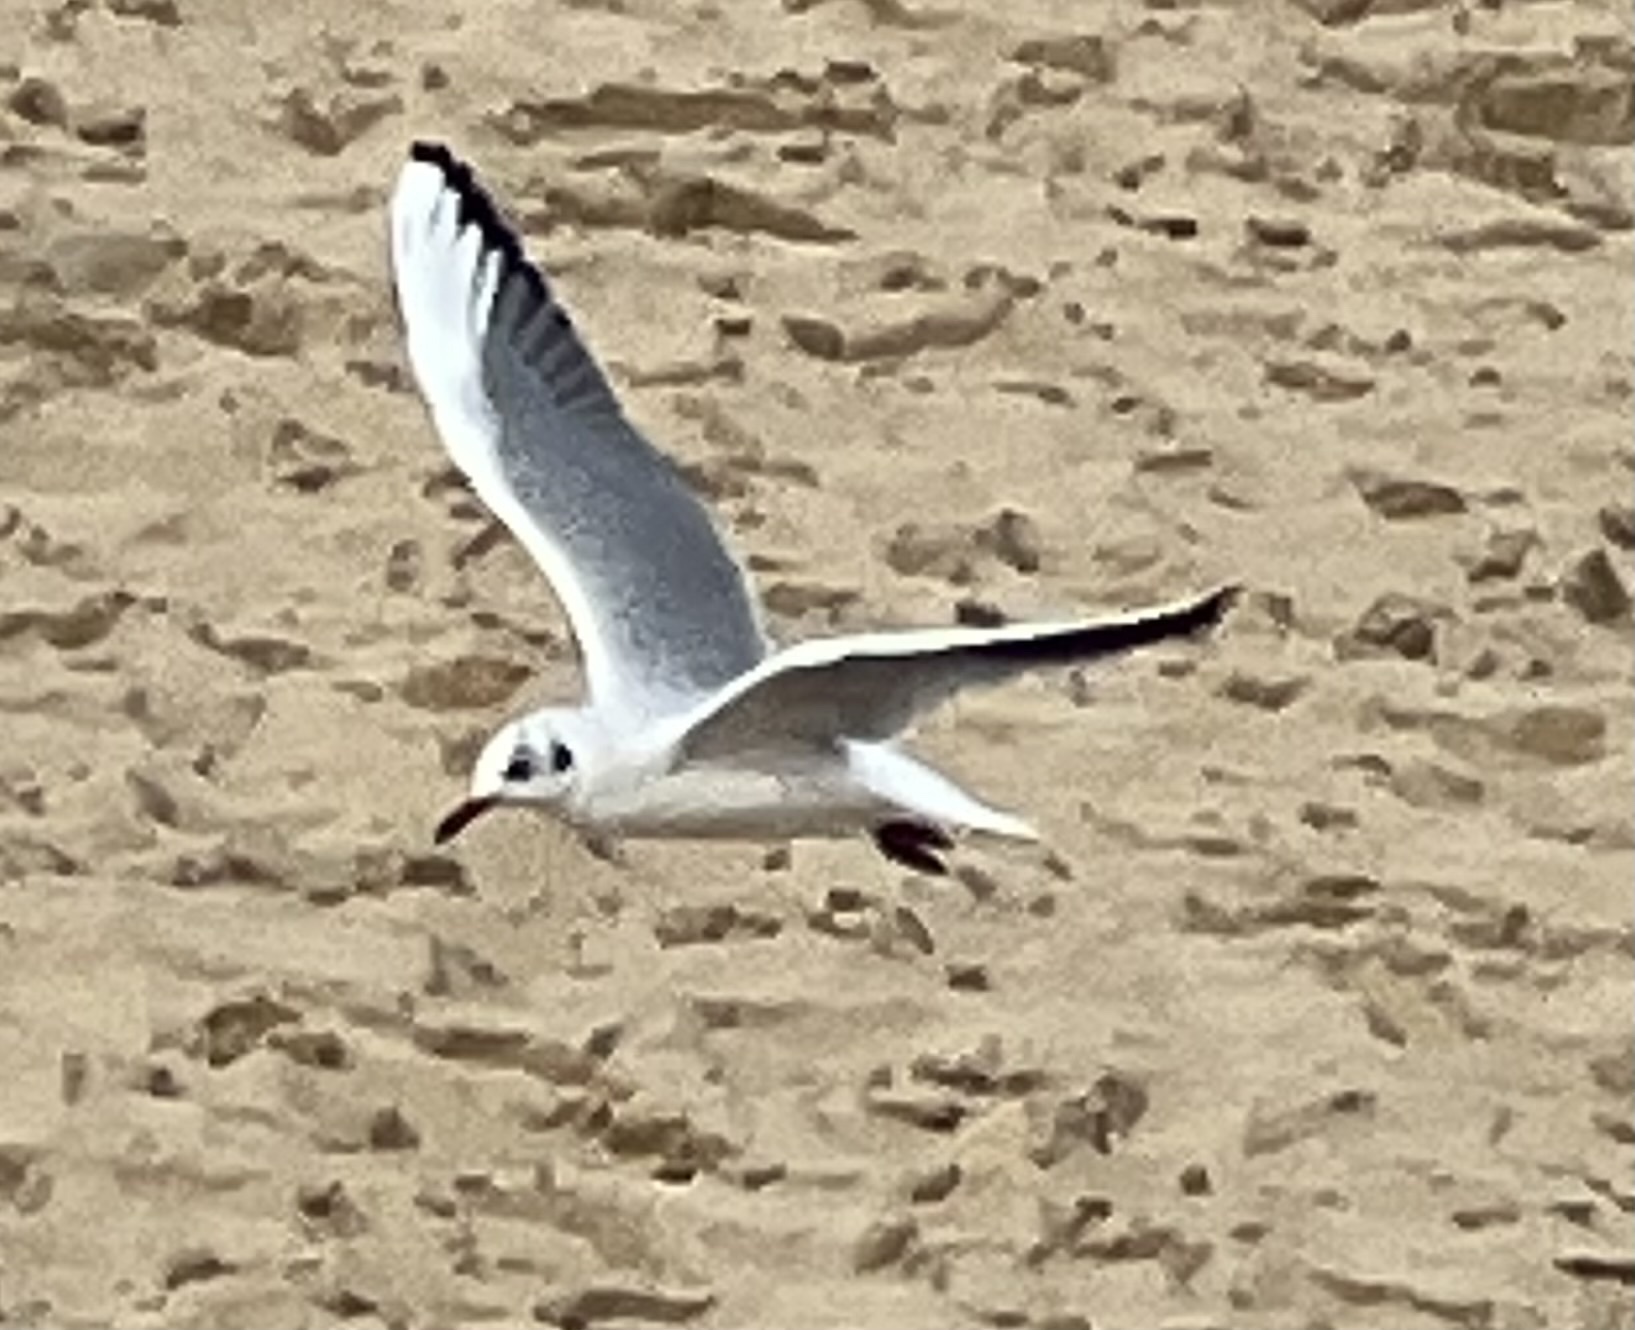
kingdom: Animalia
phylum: Chordata
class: Aves
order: Charadriiformes
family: Laridae
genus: Chroicocephalus
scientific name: Chroicocephalus ridibundus
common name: Black-headed gull
